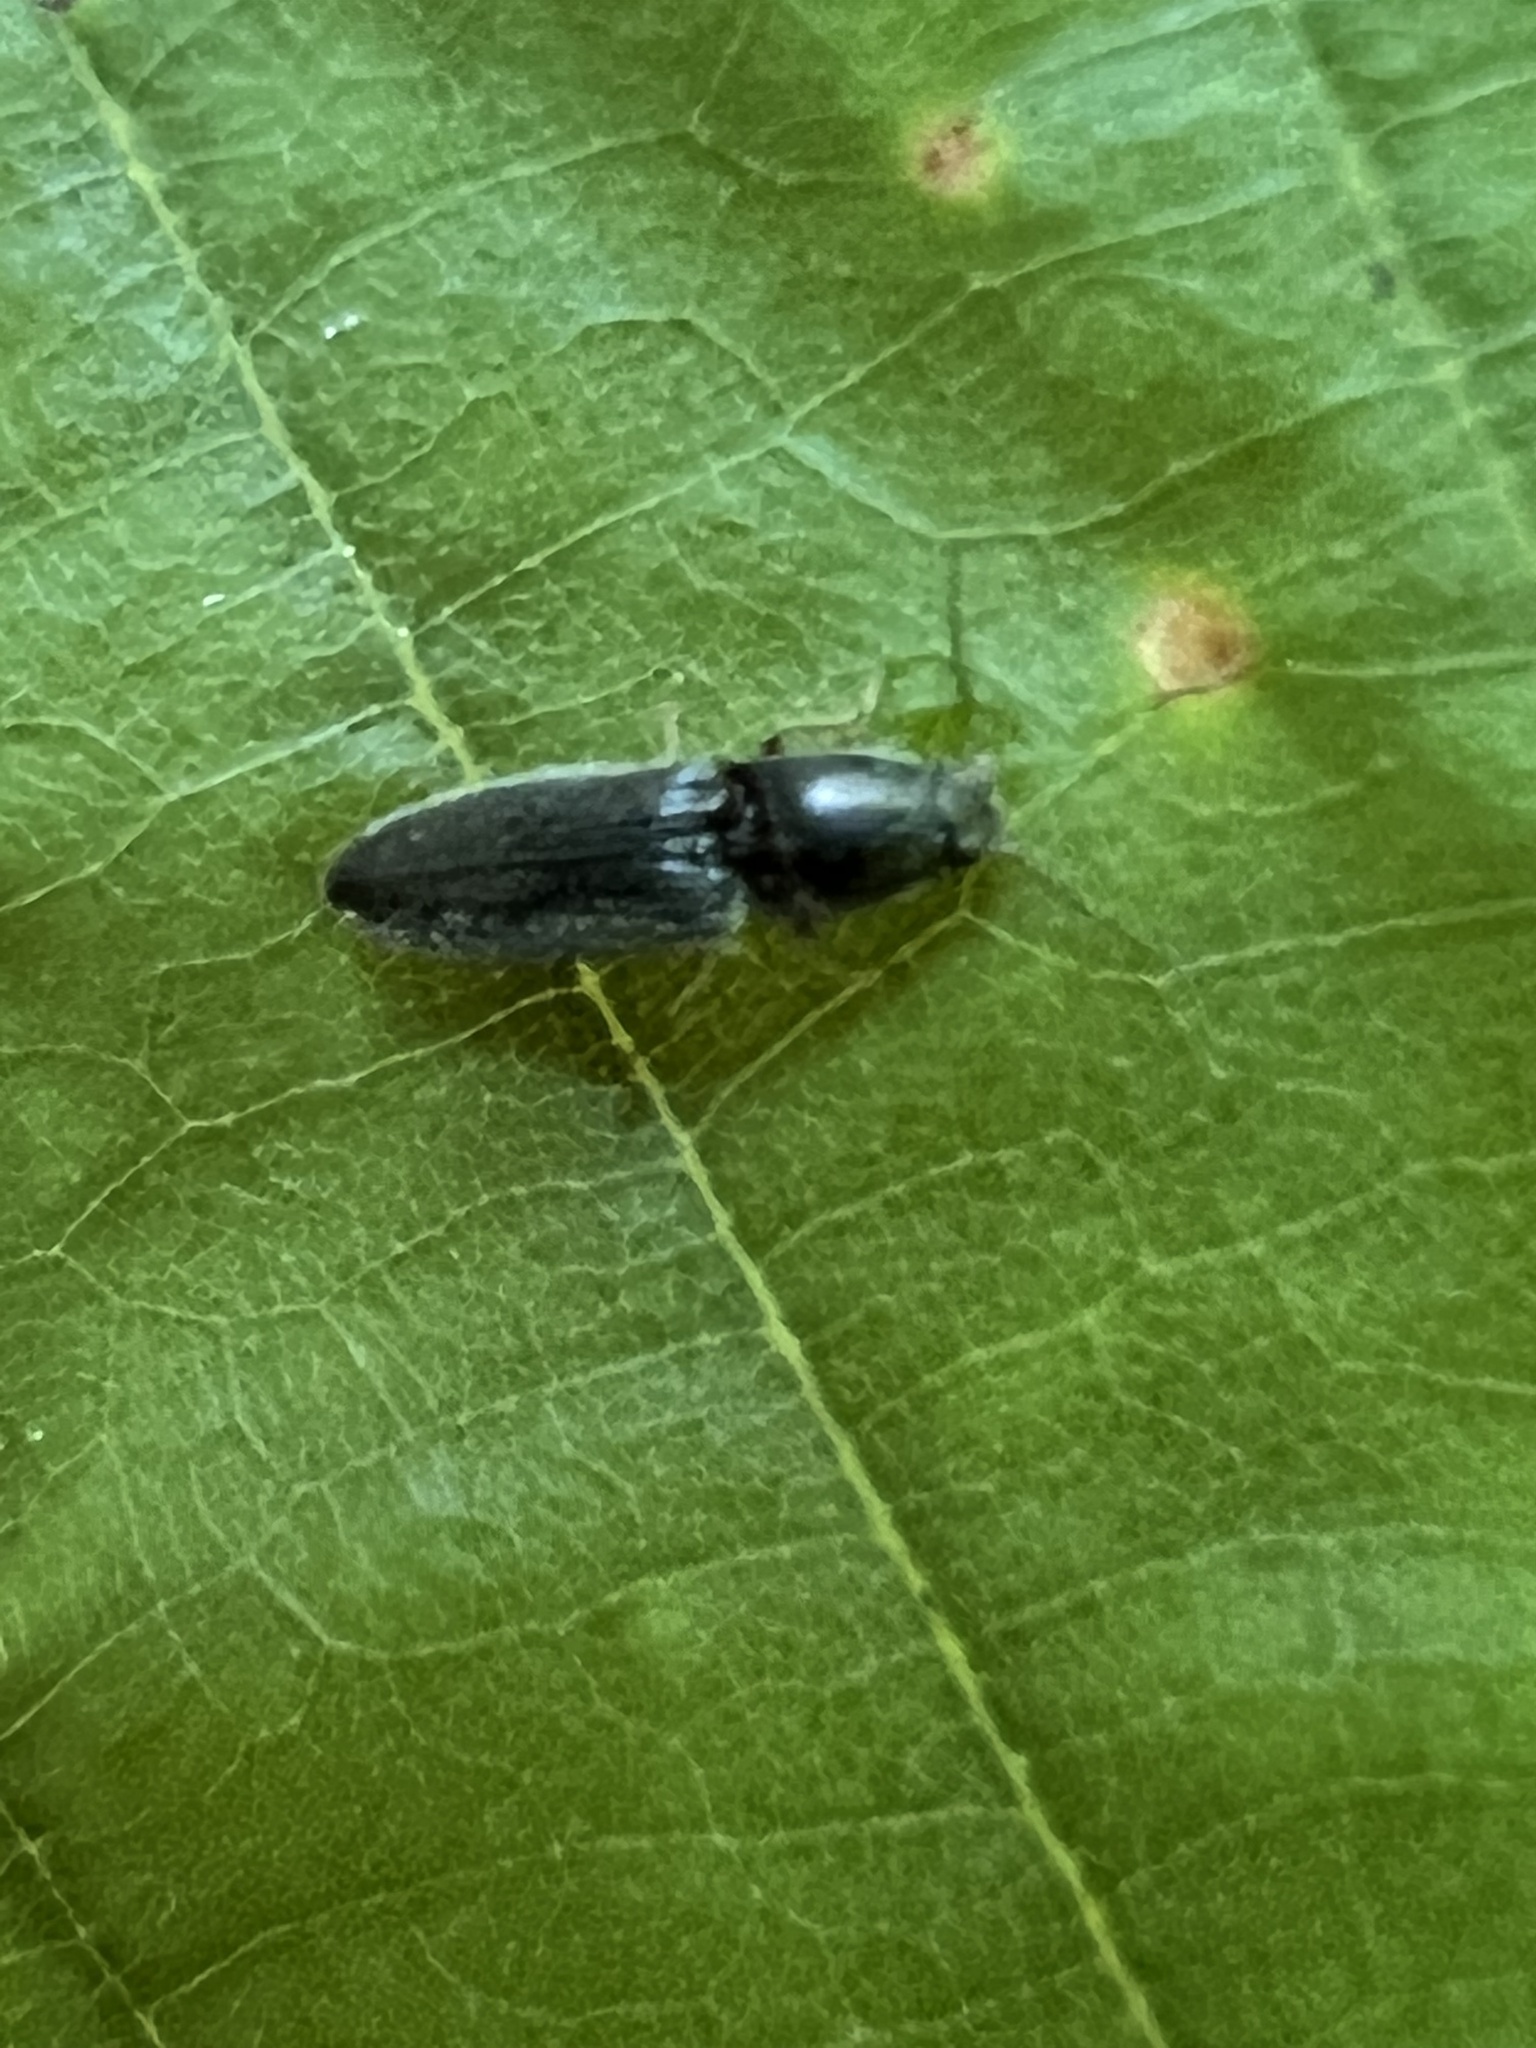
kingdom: Animalia
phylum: Arthropoda
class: Insecta
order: Coleoptera
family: Elateridae
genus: Limonius
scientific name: Limonius quercinus
